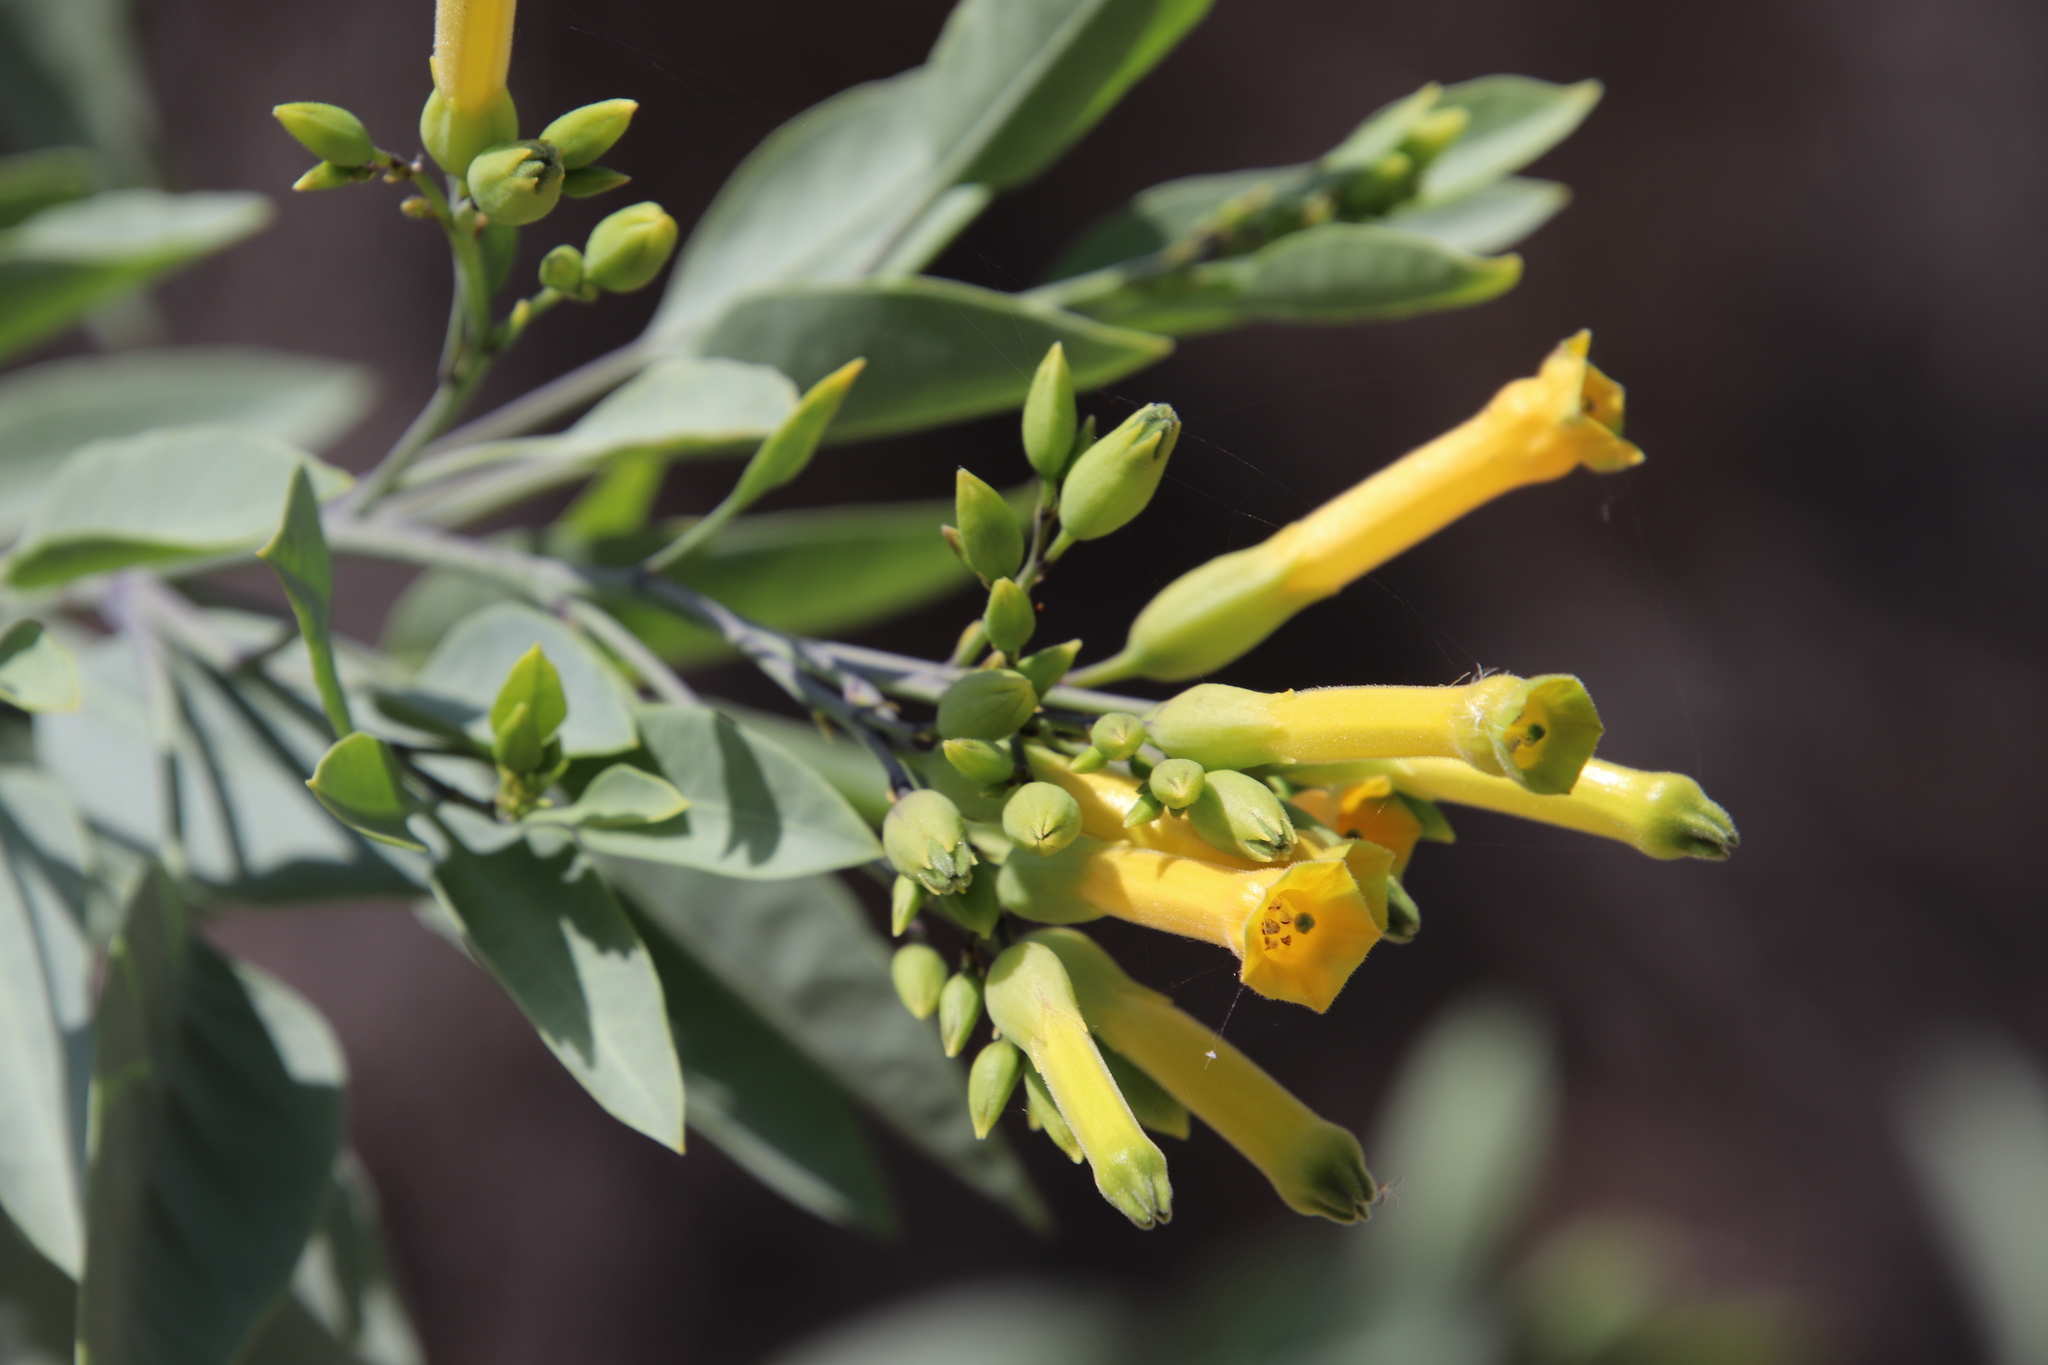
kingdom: Plantae
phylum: Tracheophyta
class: Magnoliopsida
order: Solanales
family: Solanaceae
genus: Nicotiana
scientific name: Nicotiana glauca
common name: Tree tobacco
